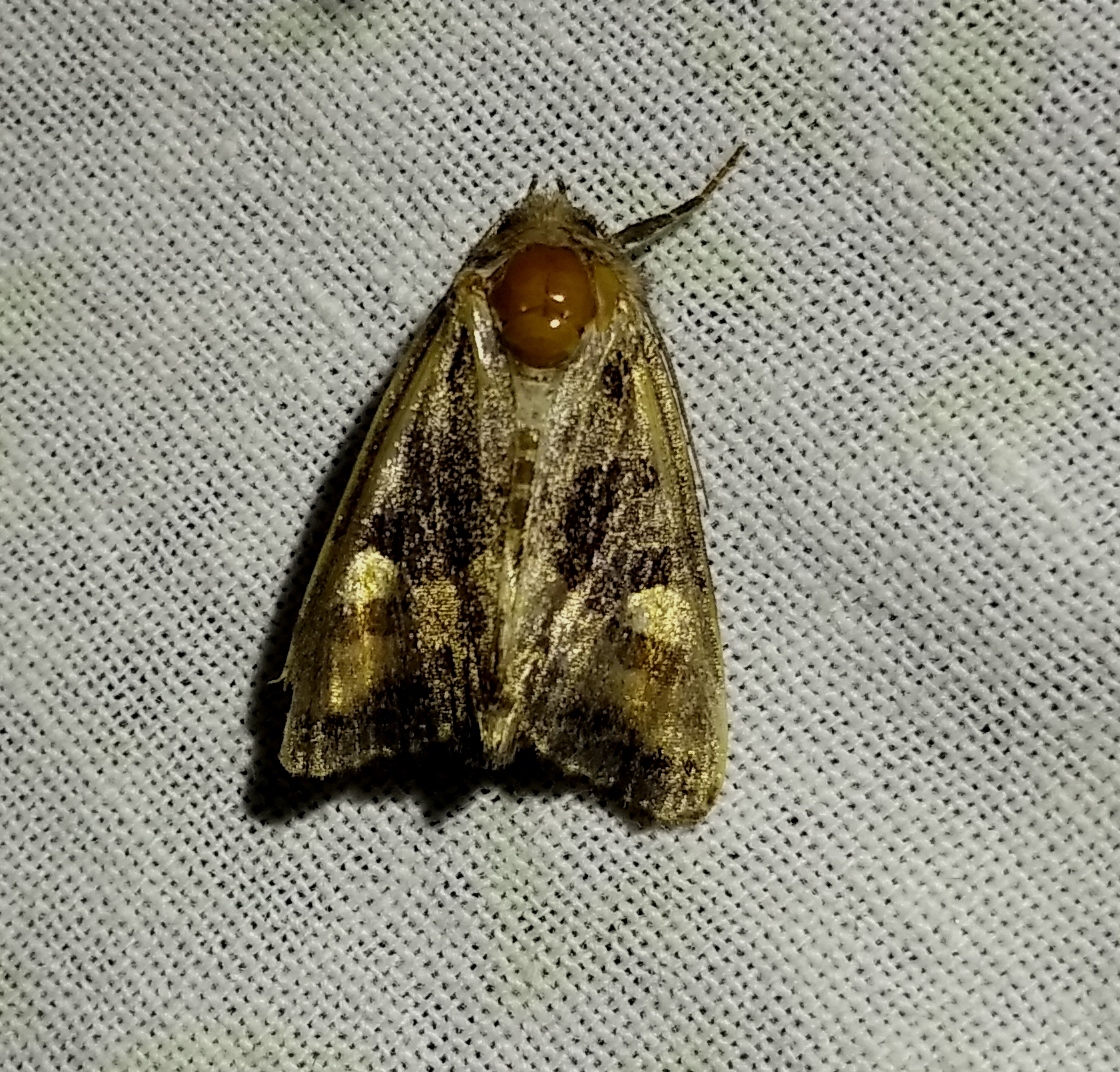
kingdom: Animalia
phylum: Arthropoda
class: Insecta
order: Lepidoptera
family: Noctuidae
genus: Euplexia
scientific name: Euplexia lucipara
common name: Small angle shades
